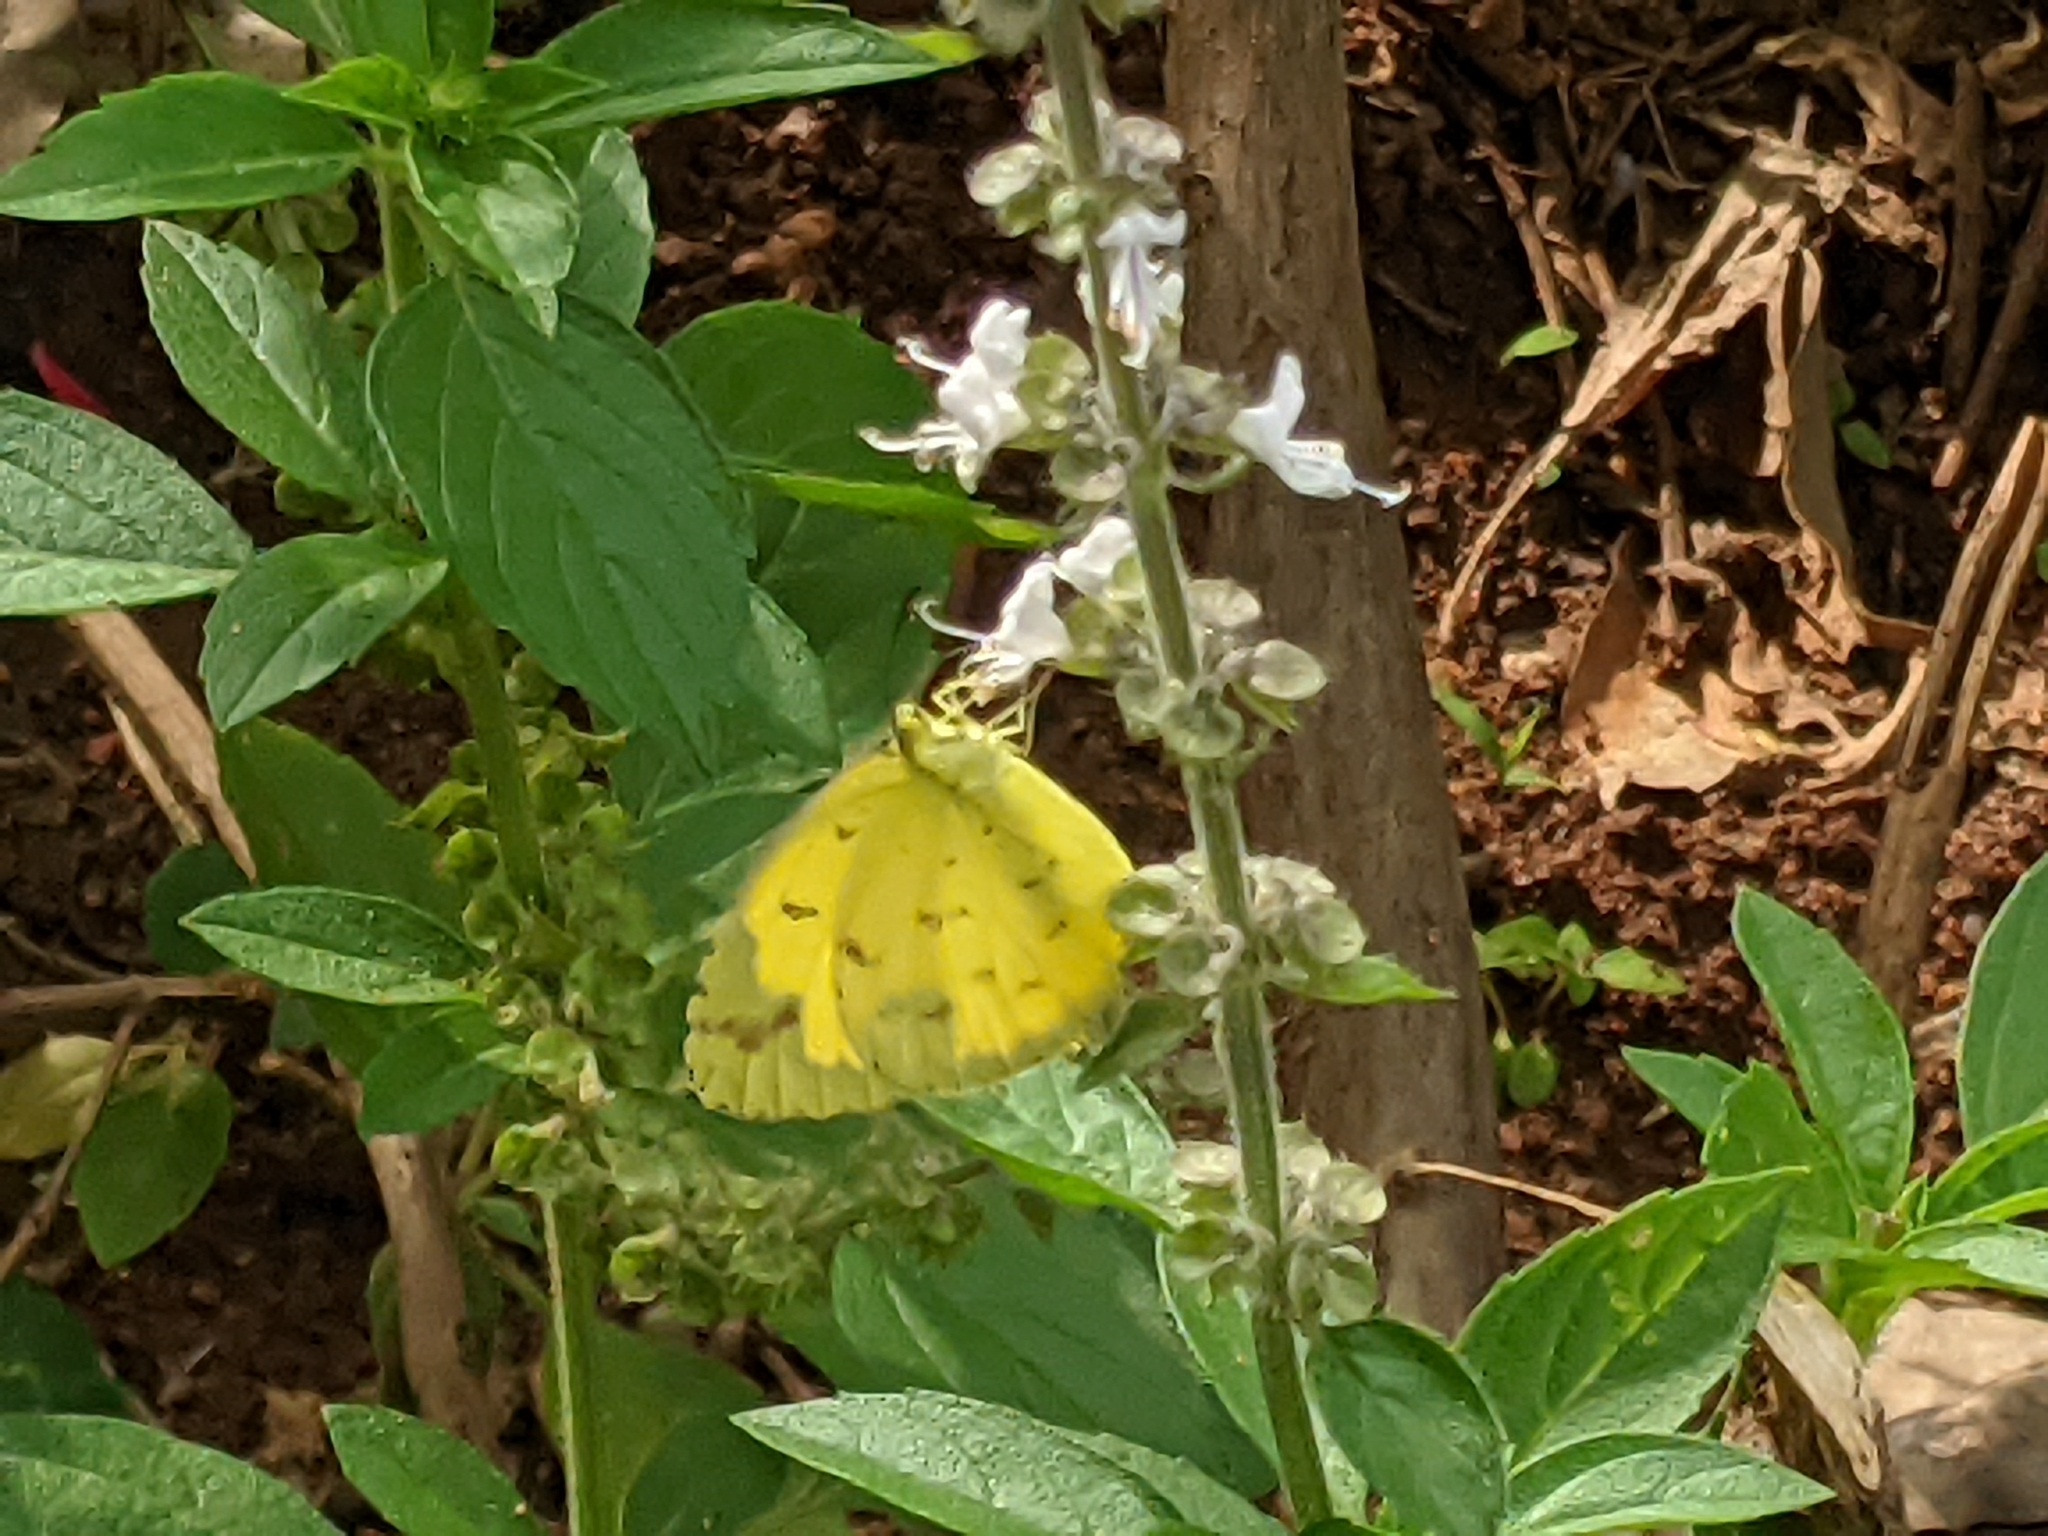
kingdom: Animalia
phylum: Arthropoda
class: Insecta
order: Lepidoptera
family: Pieridae
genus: Eurema
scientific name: Eurema hecabe
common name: Pale grass yellow
